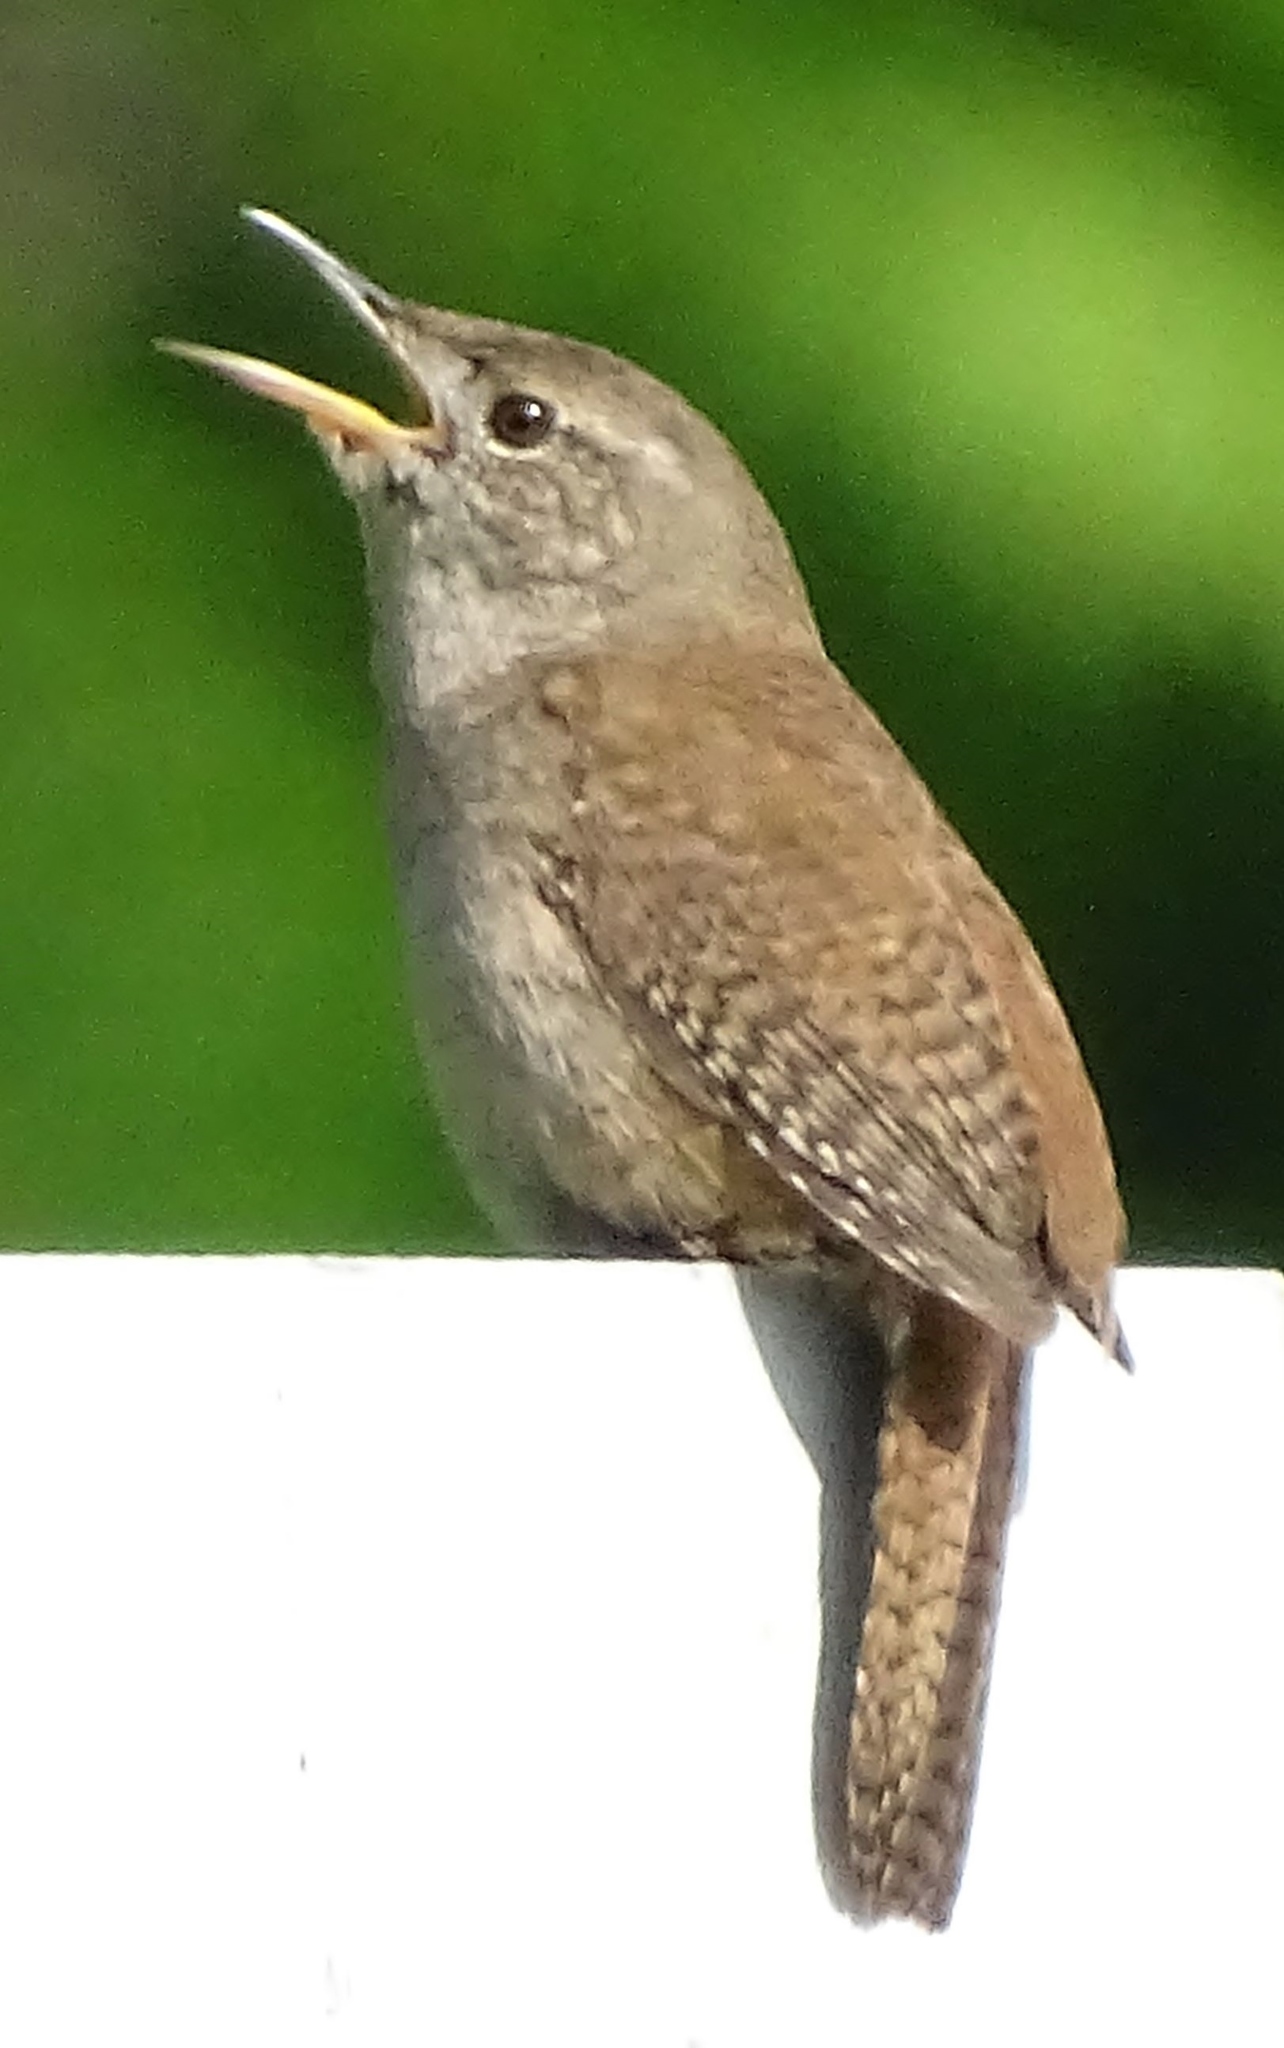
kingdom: Animalia
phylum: Chordata
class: Aves
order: Passeriformes
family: Troglodytidae
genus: Troglodytes
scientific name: Troglodytes aedon
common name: House wren
